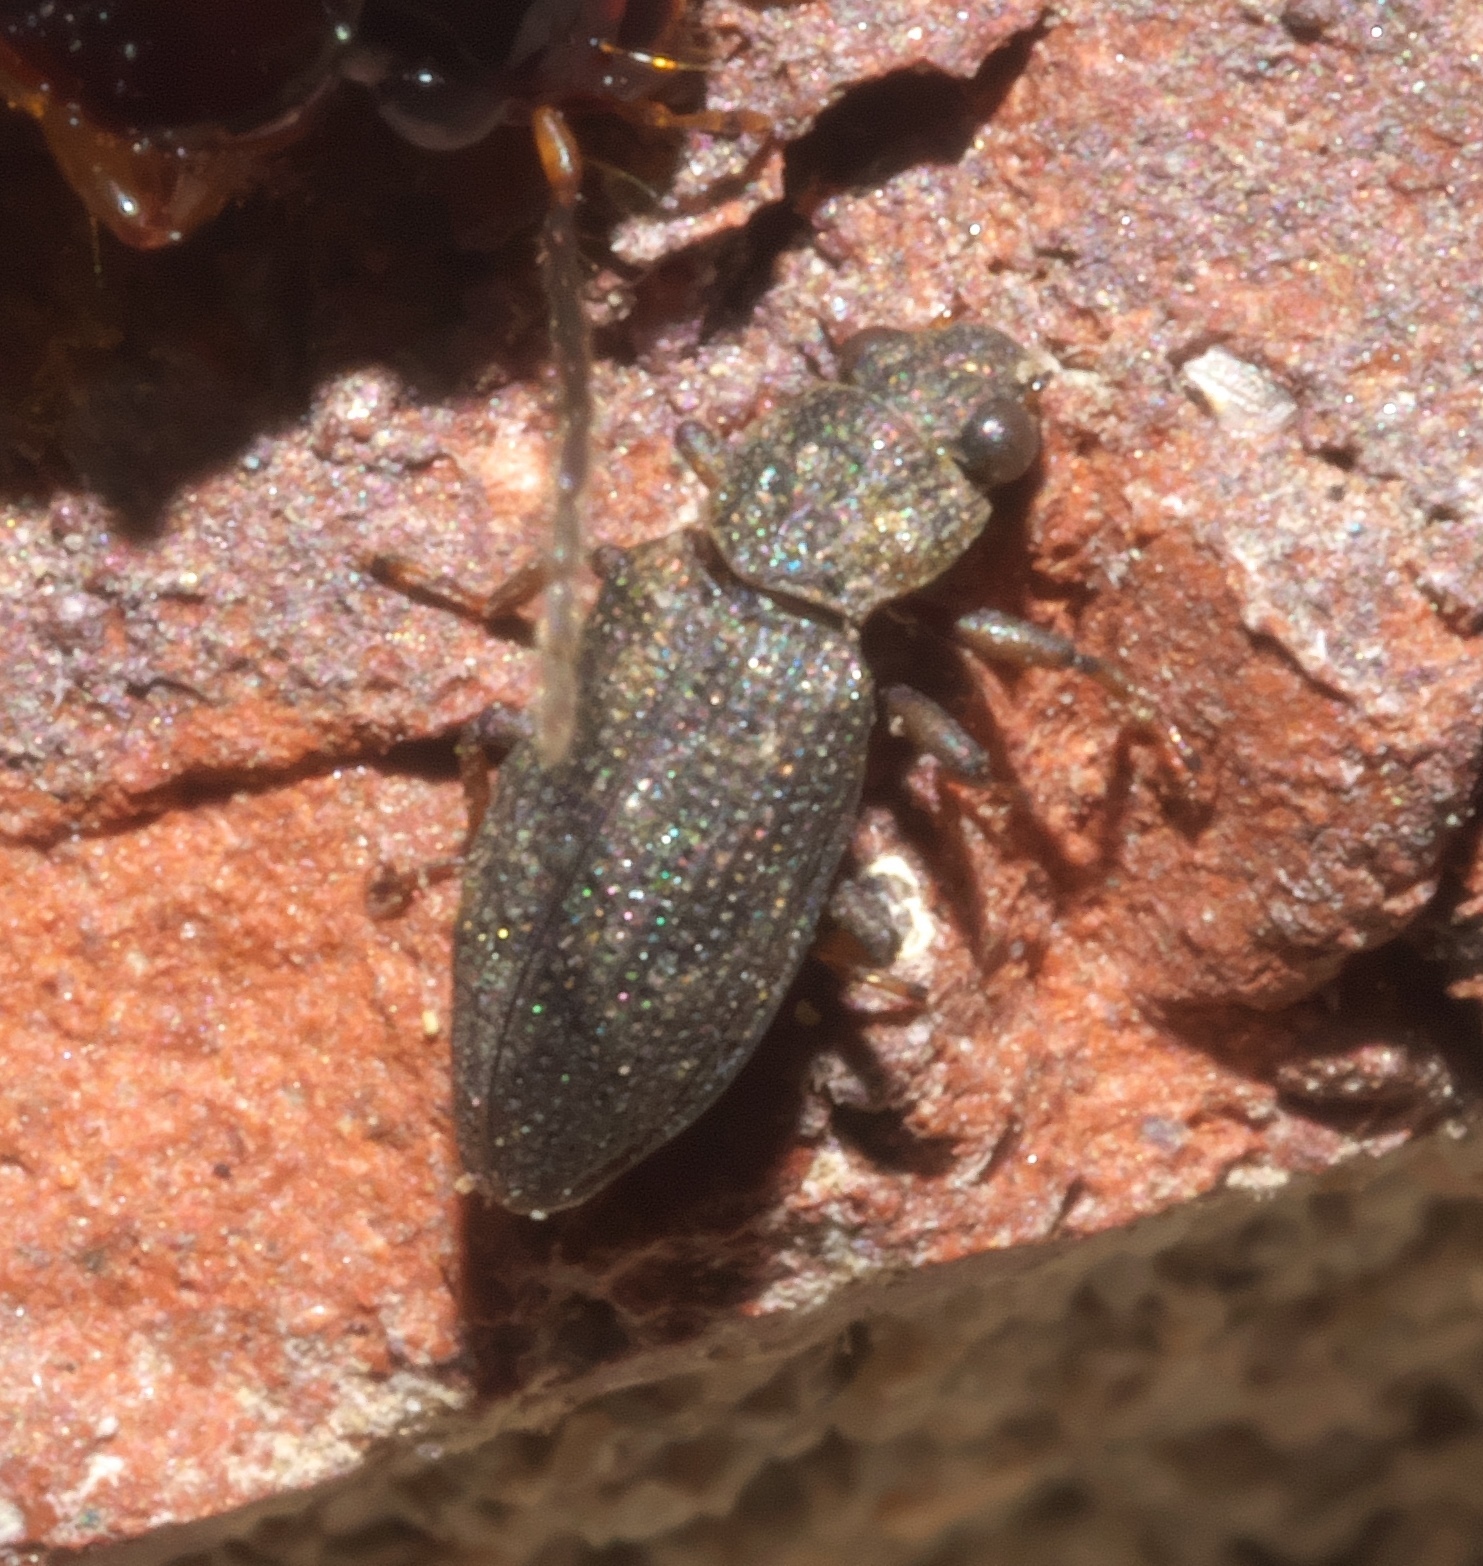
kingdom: Animalia
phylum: Arthropoda
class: Insecta
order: Coleoptera
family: Hydrochidae
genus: Hydrochus
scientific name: Hydrochus
